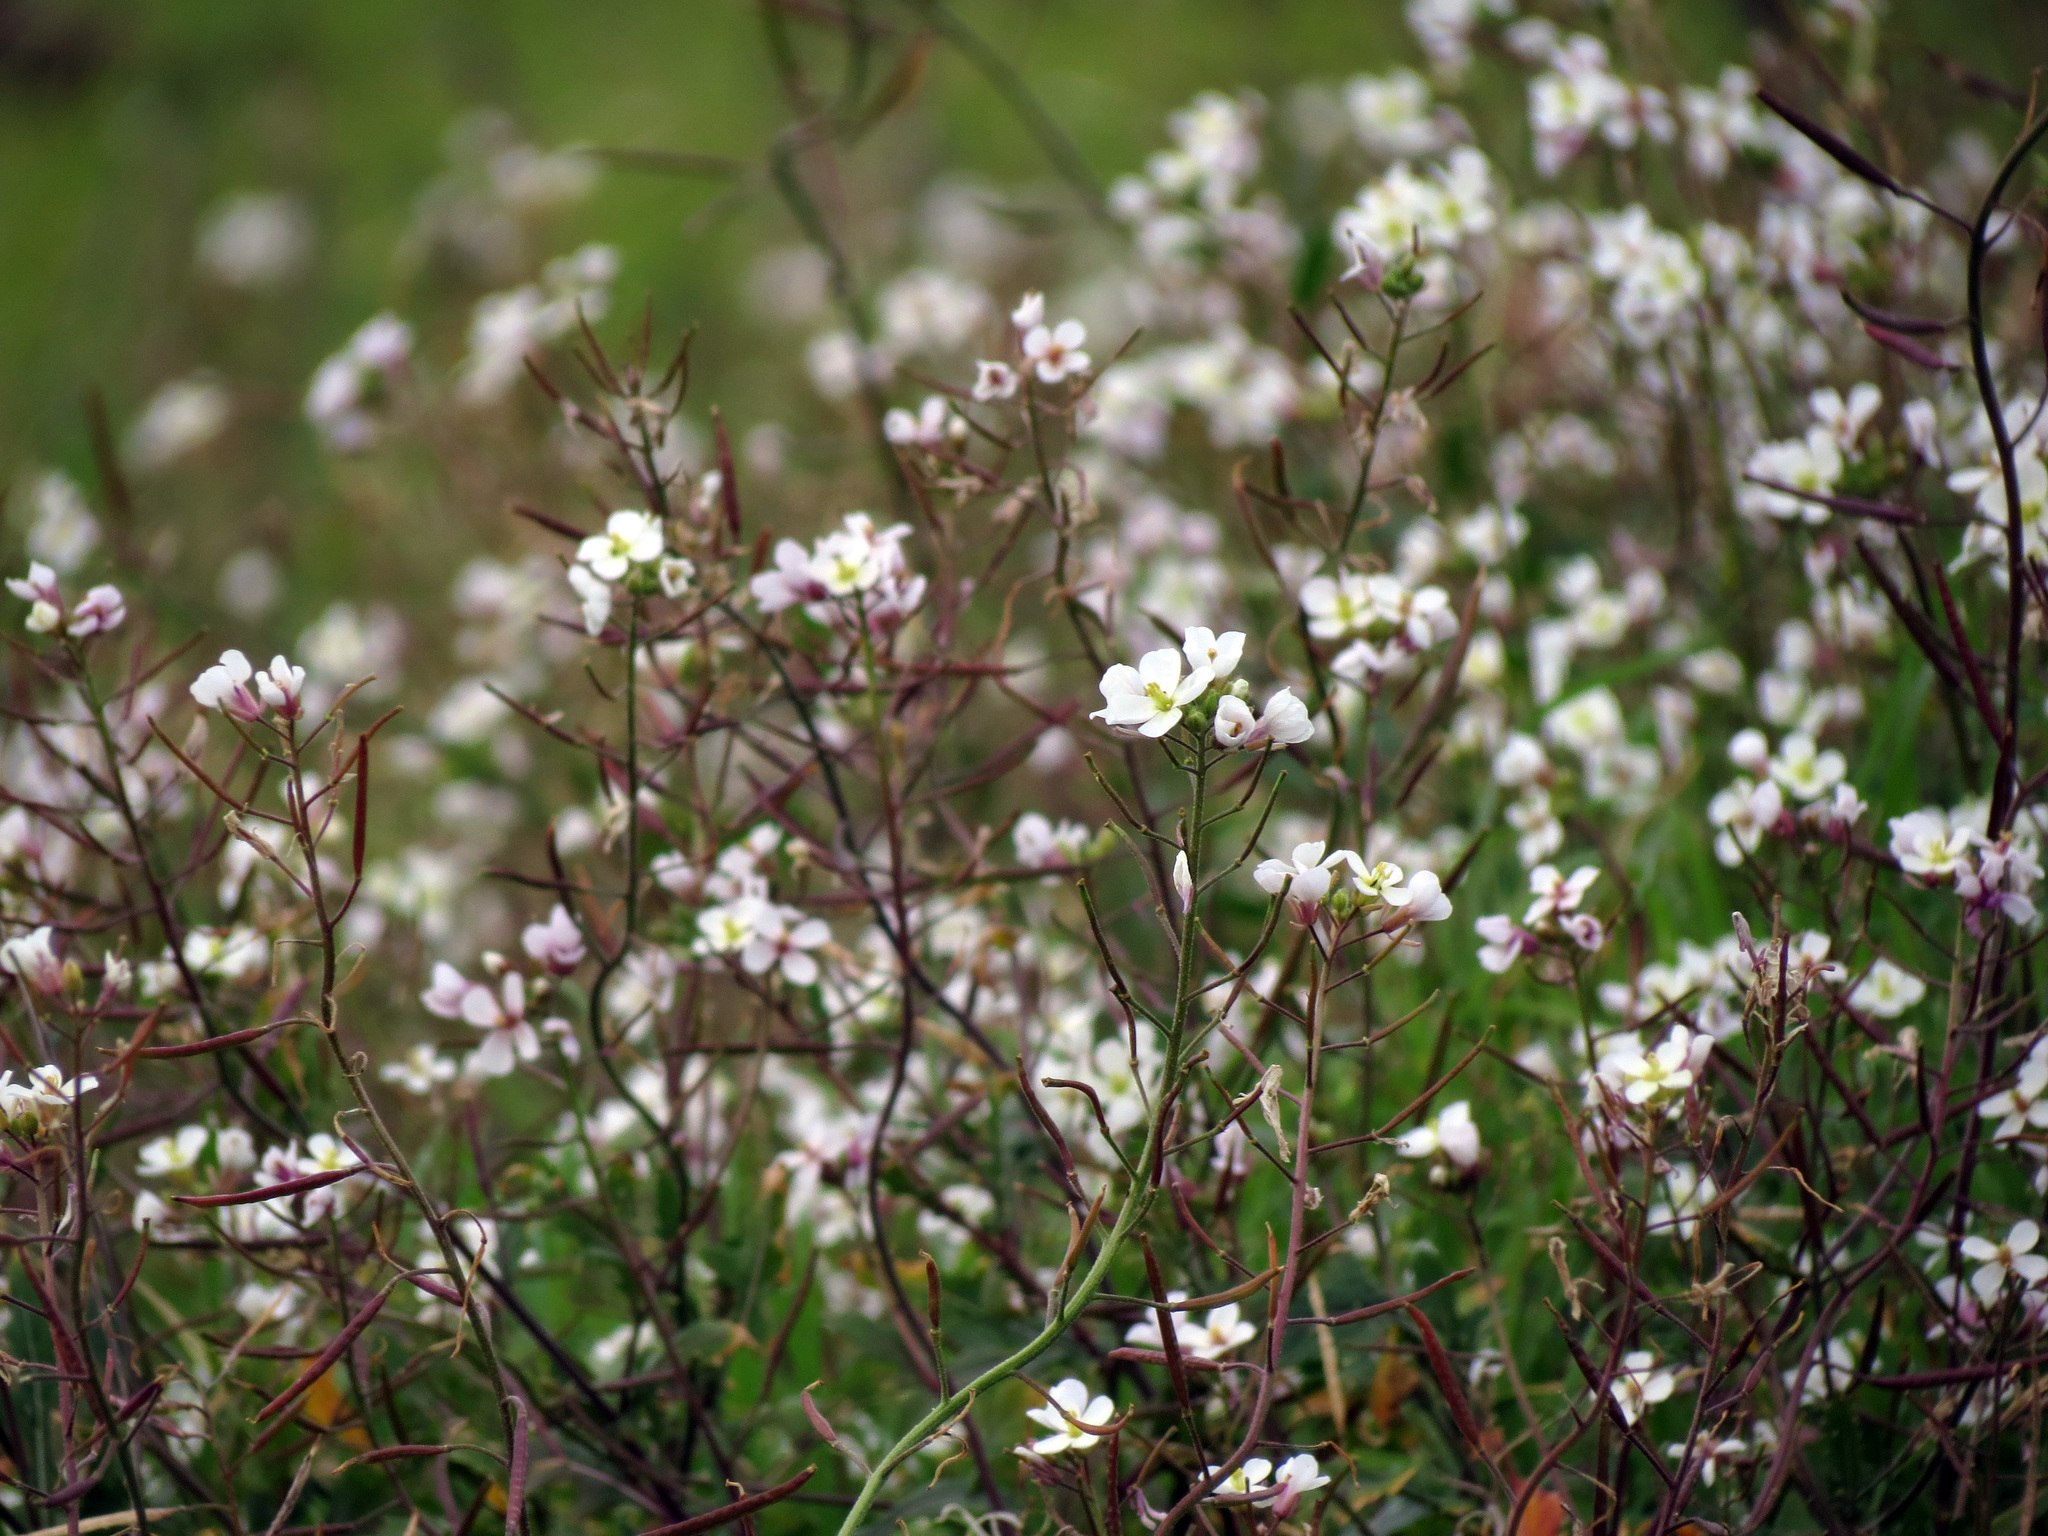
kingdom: Plantae
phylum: Tracheophyta
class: Magnoliopsida
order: Brassicales
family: Brassicaceae
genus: Diplotaxis
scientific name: Diplotaxis erucoides
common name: White rocket
